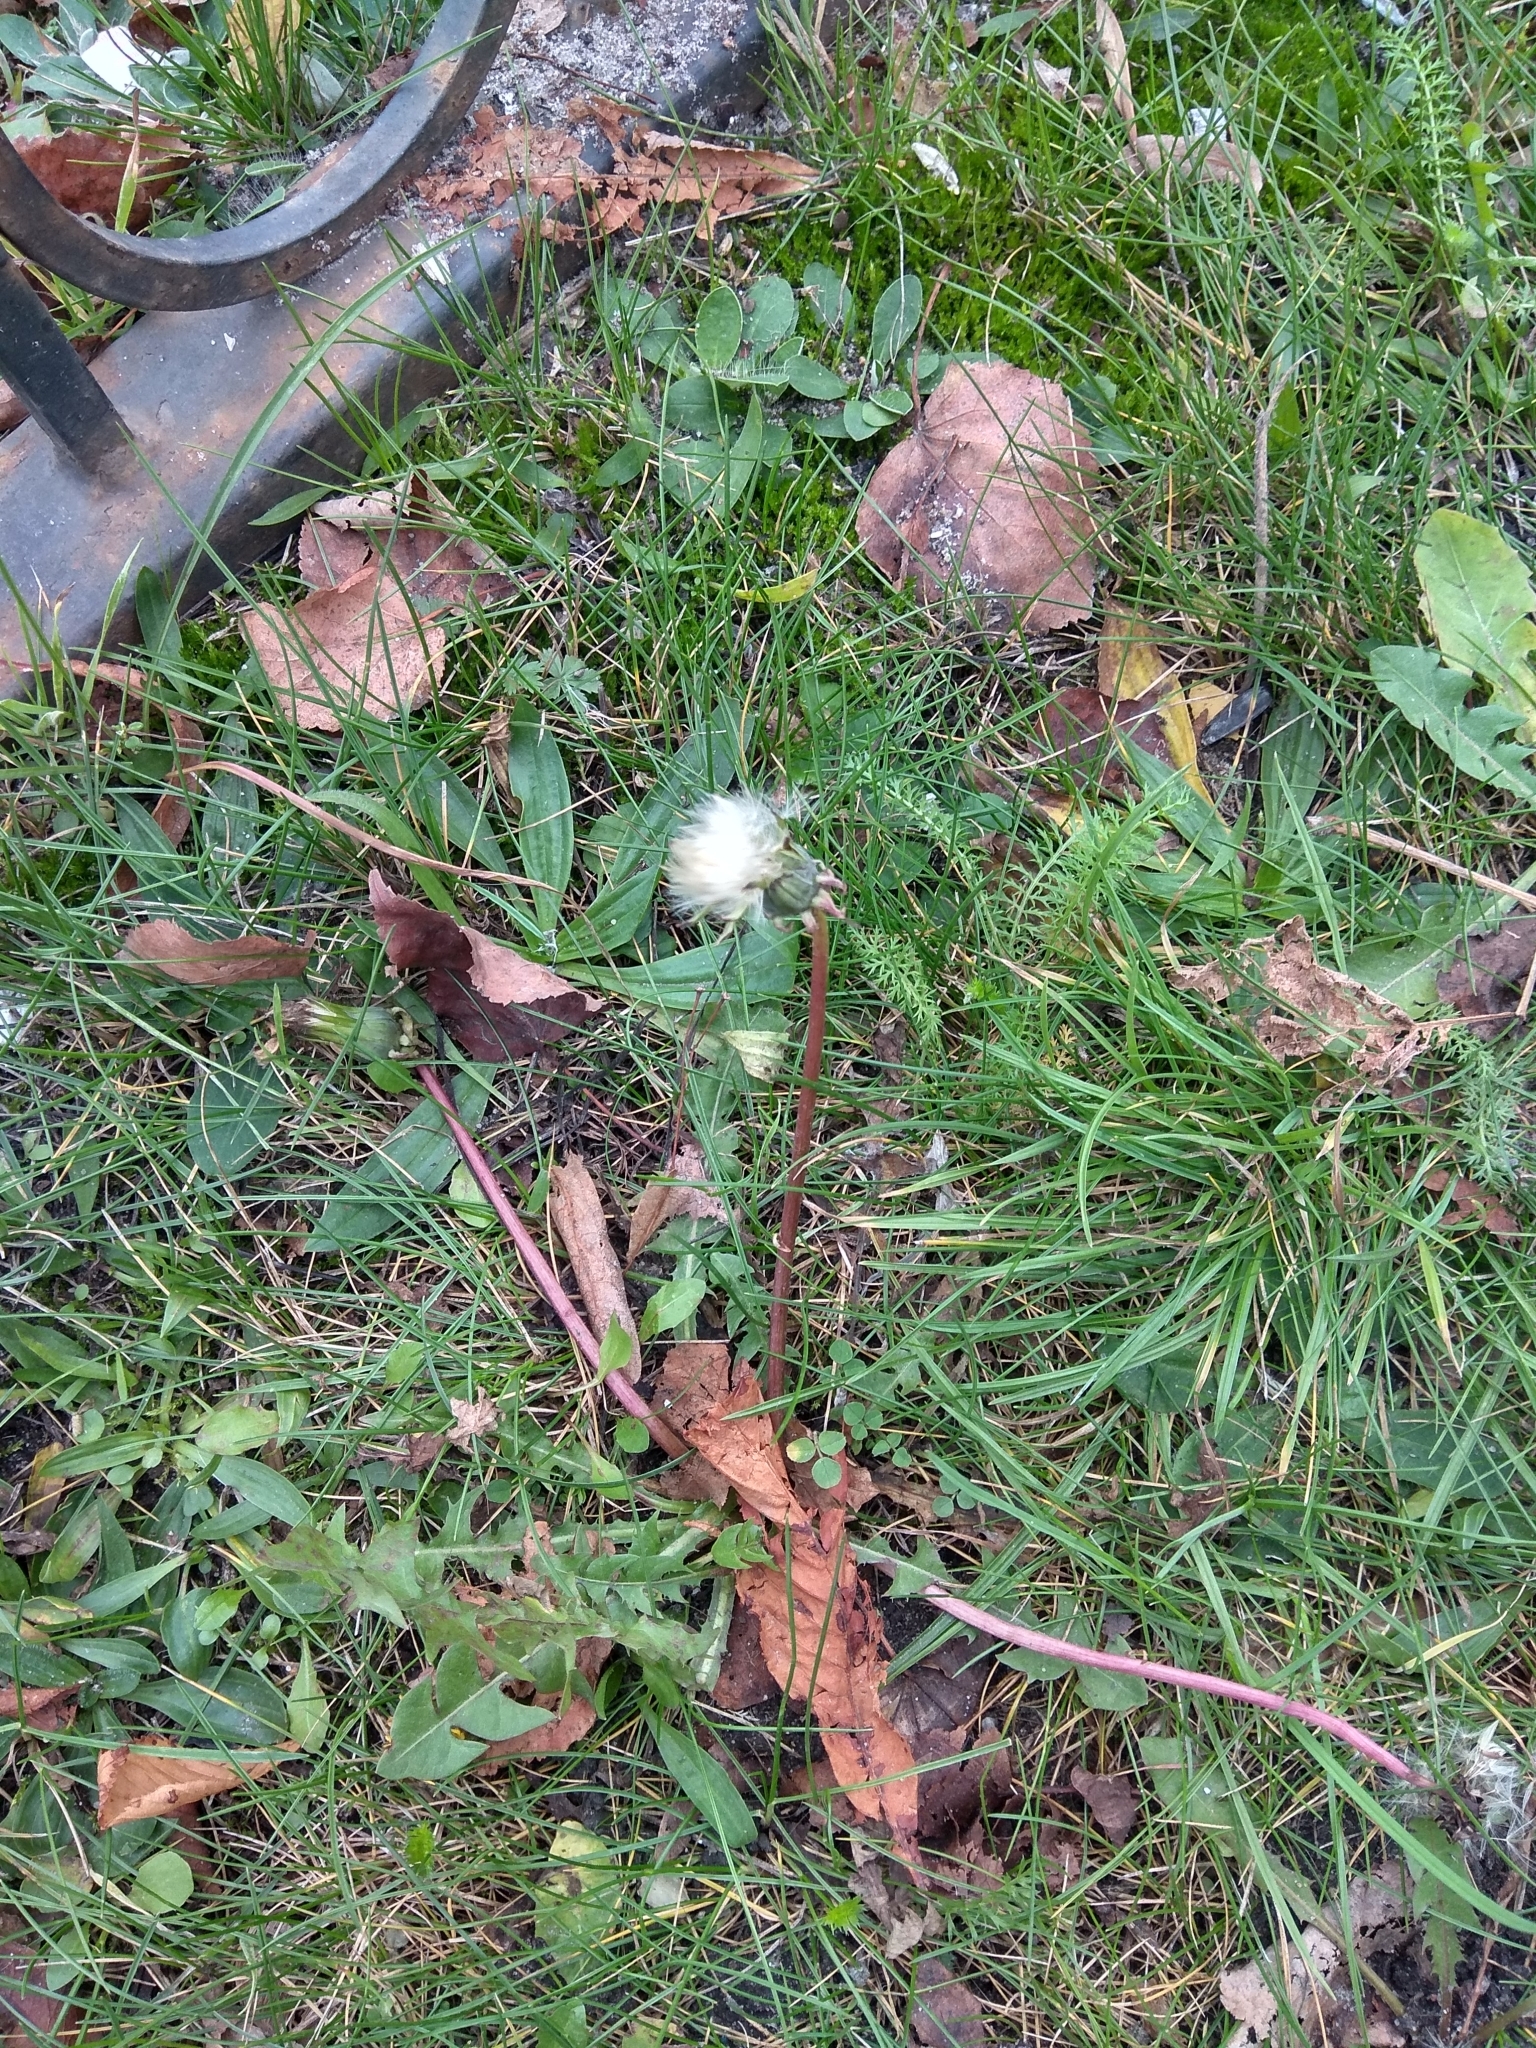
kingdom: Plantae
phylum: Tracheophyta
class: Magnoliopsida
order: Asterales
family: Asteraceae
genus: Taraxacum
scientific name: Taraxacum officinale
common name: Common dandelion
